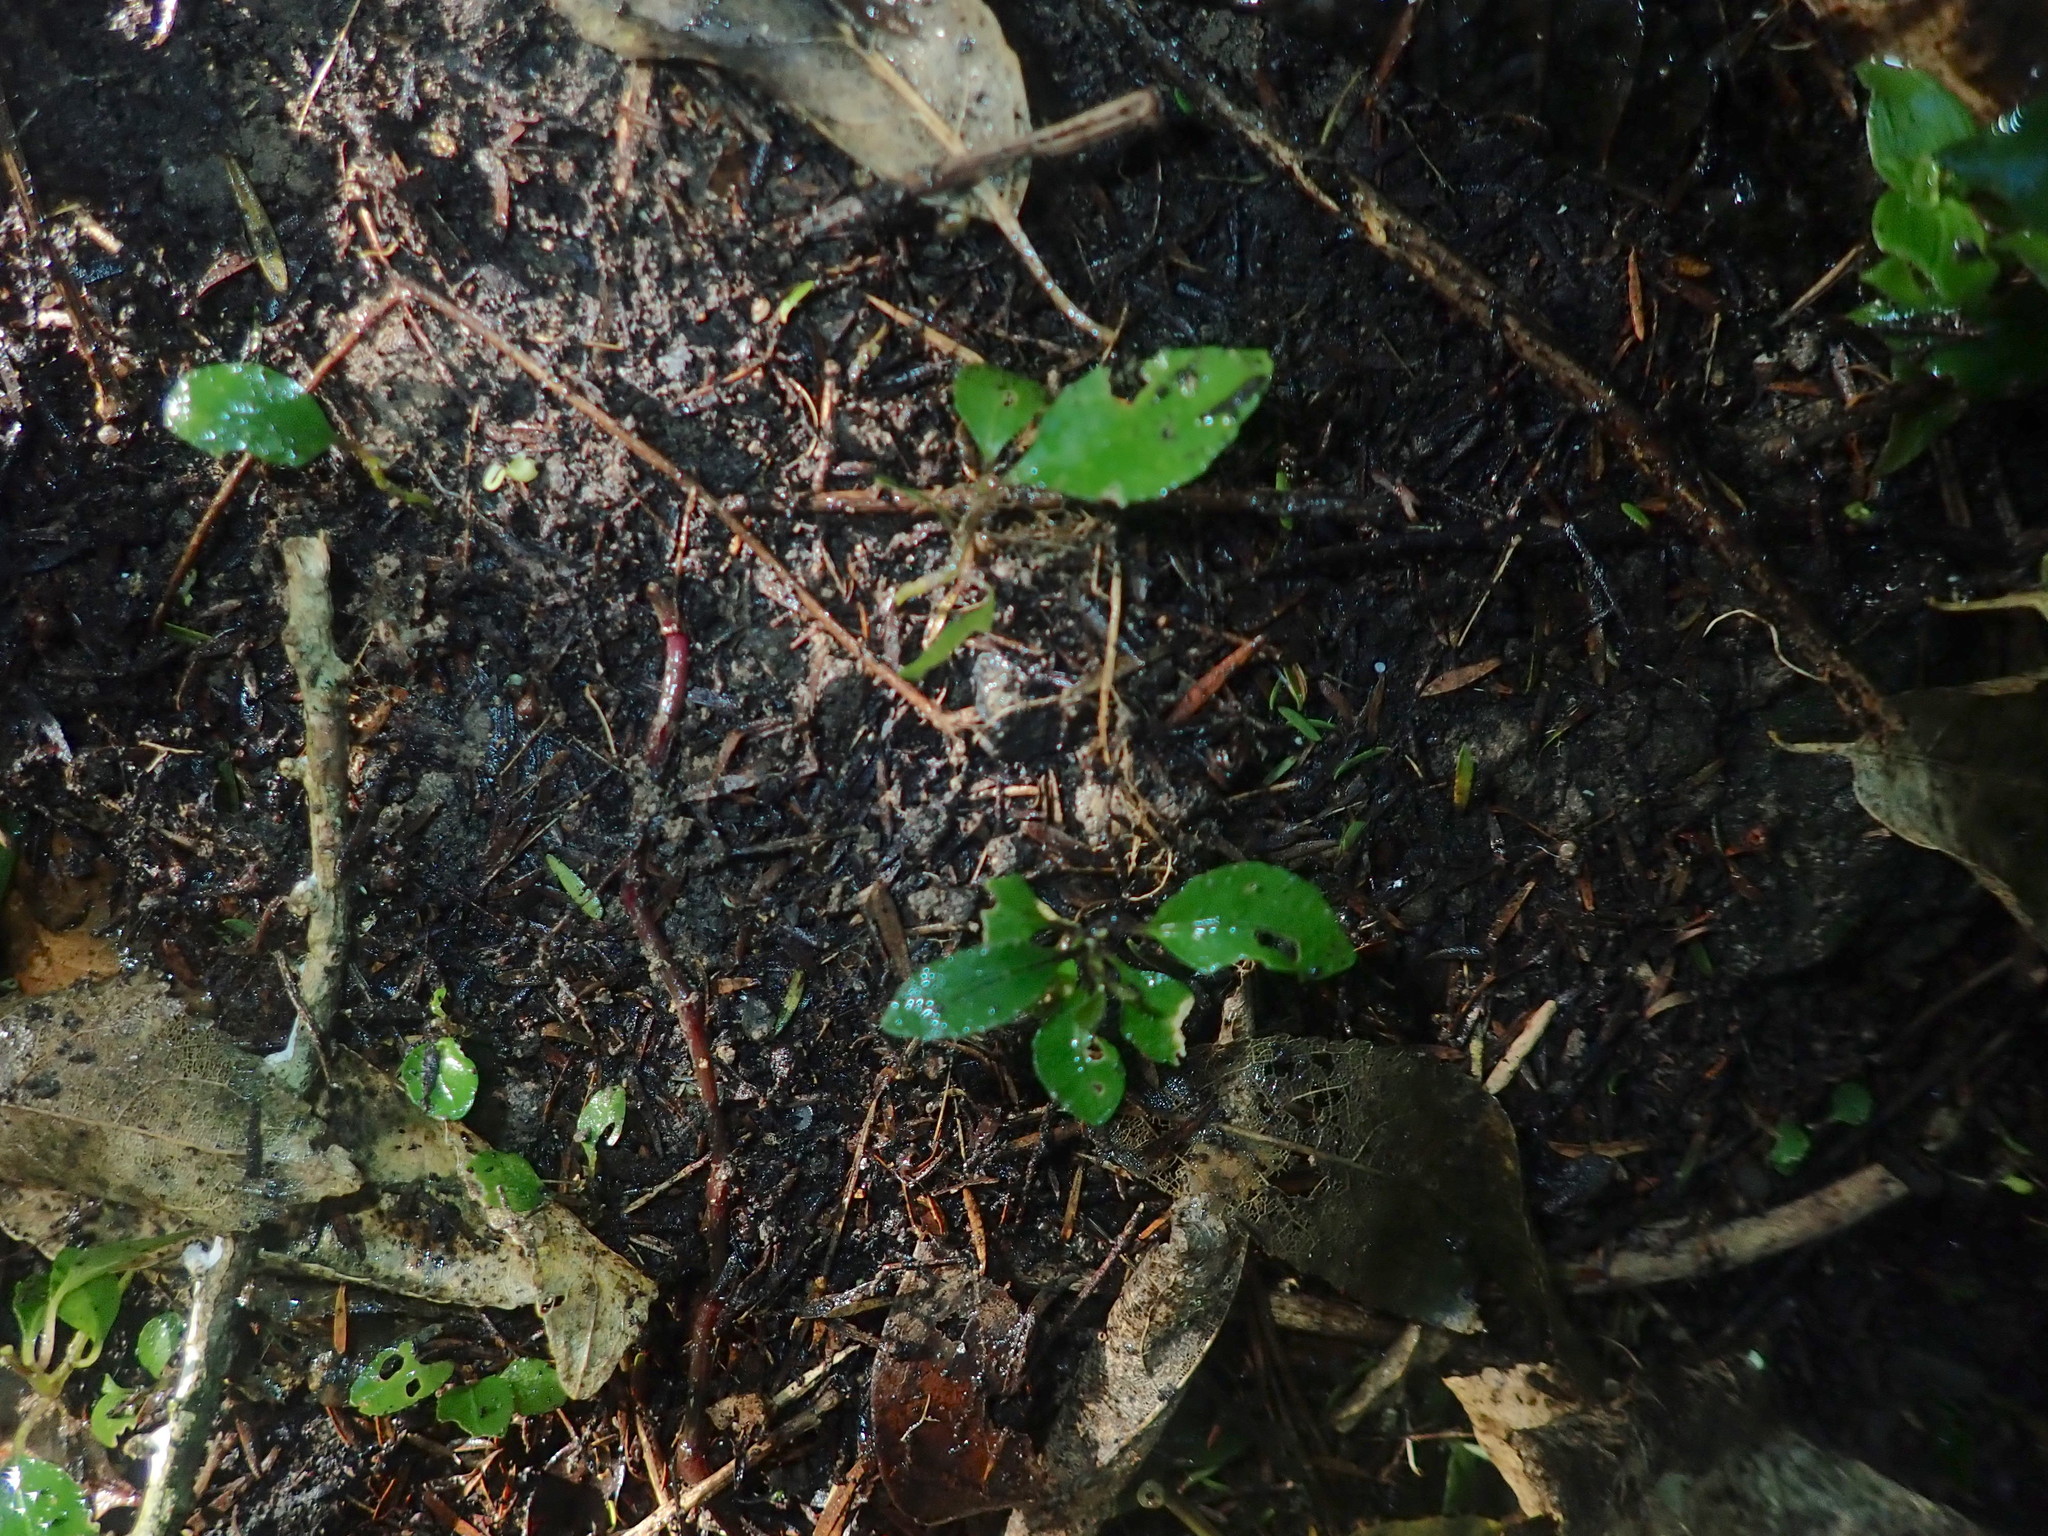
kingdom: Plantae
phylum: Tracheophyta
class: Magnoliopsida
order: Malpighiales
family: Violaceae
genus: Melicytus
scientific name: Melicytus ramiflorus
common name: Mahoe
